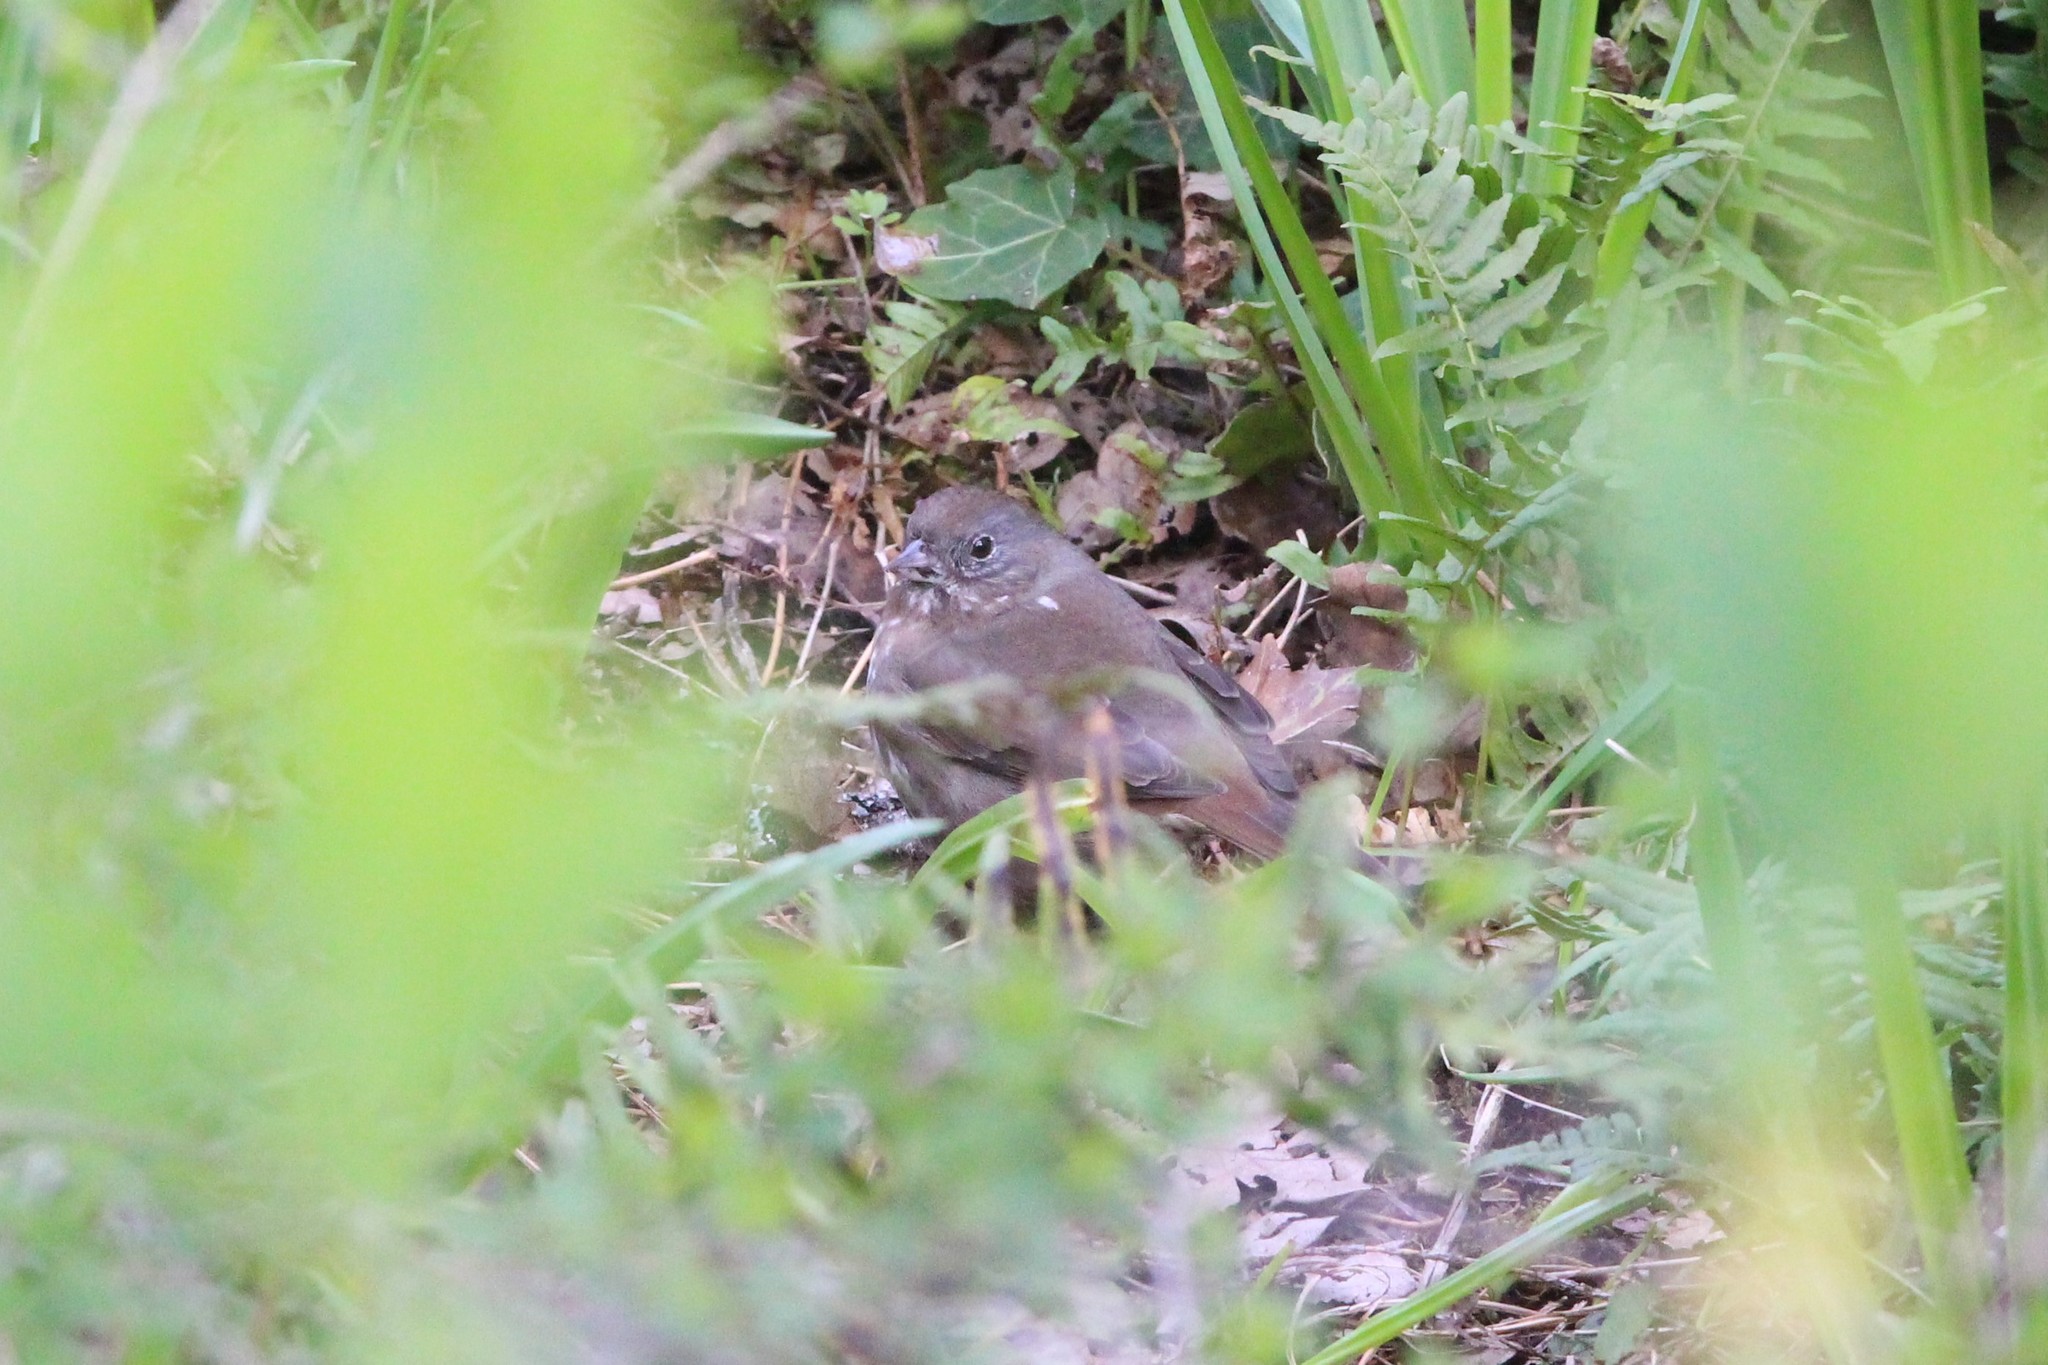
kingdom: Animalia
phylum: Chordata
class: Aves
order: Passeriformes
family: Passerellidae
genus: Passerella
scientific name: Passerella iliaca
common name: Fox sparrow
